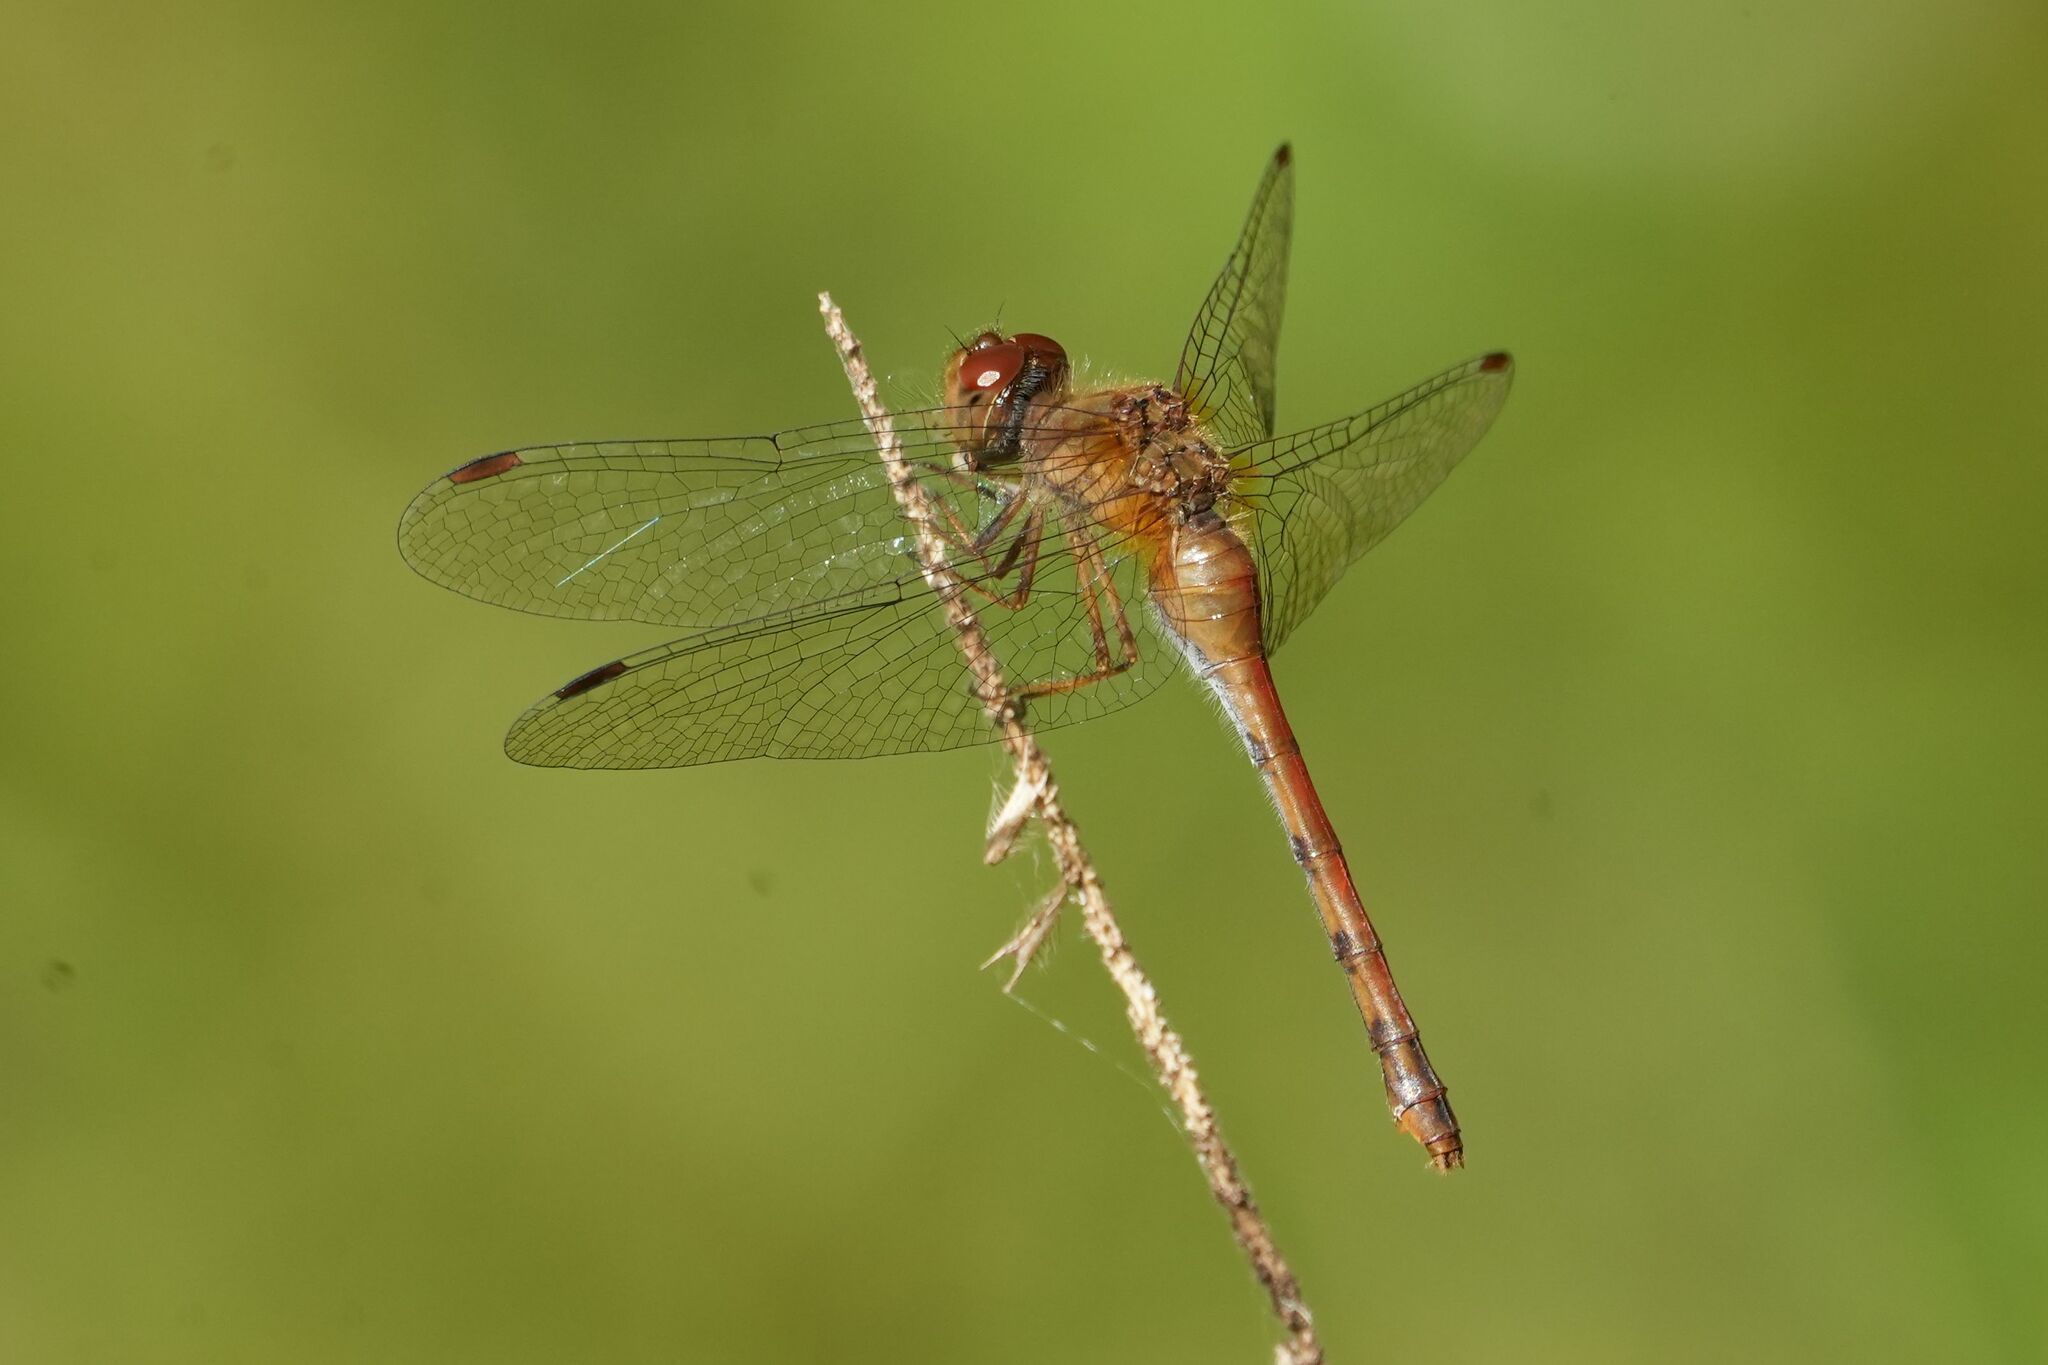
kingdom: Animalia
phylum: Arthropoda
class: Insecta
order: Odonata
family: Libellulidae
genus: Sympetrum
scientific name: Sympetrum vicinum
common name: Autumn meadowhawk
